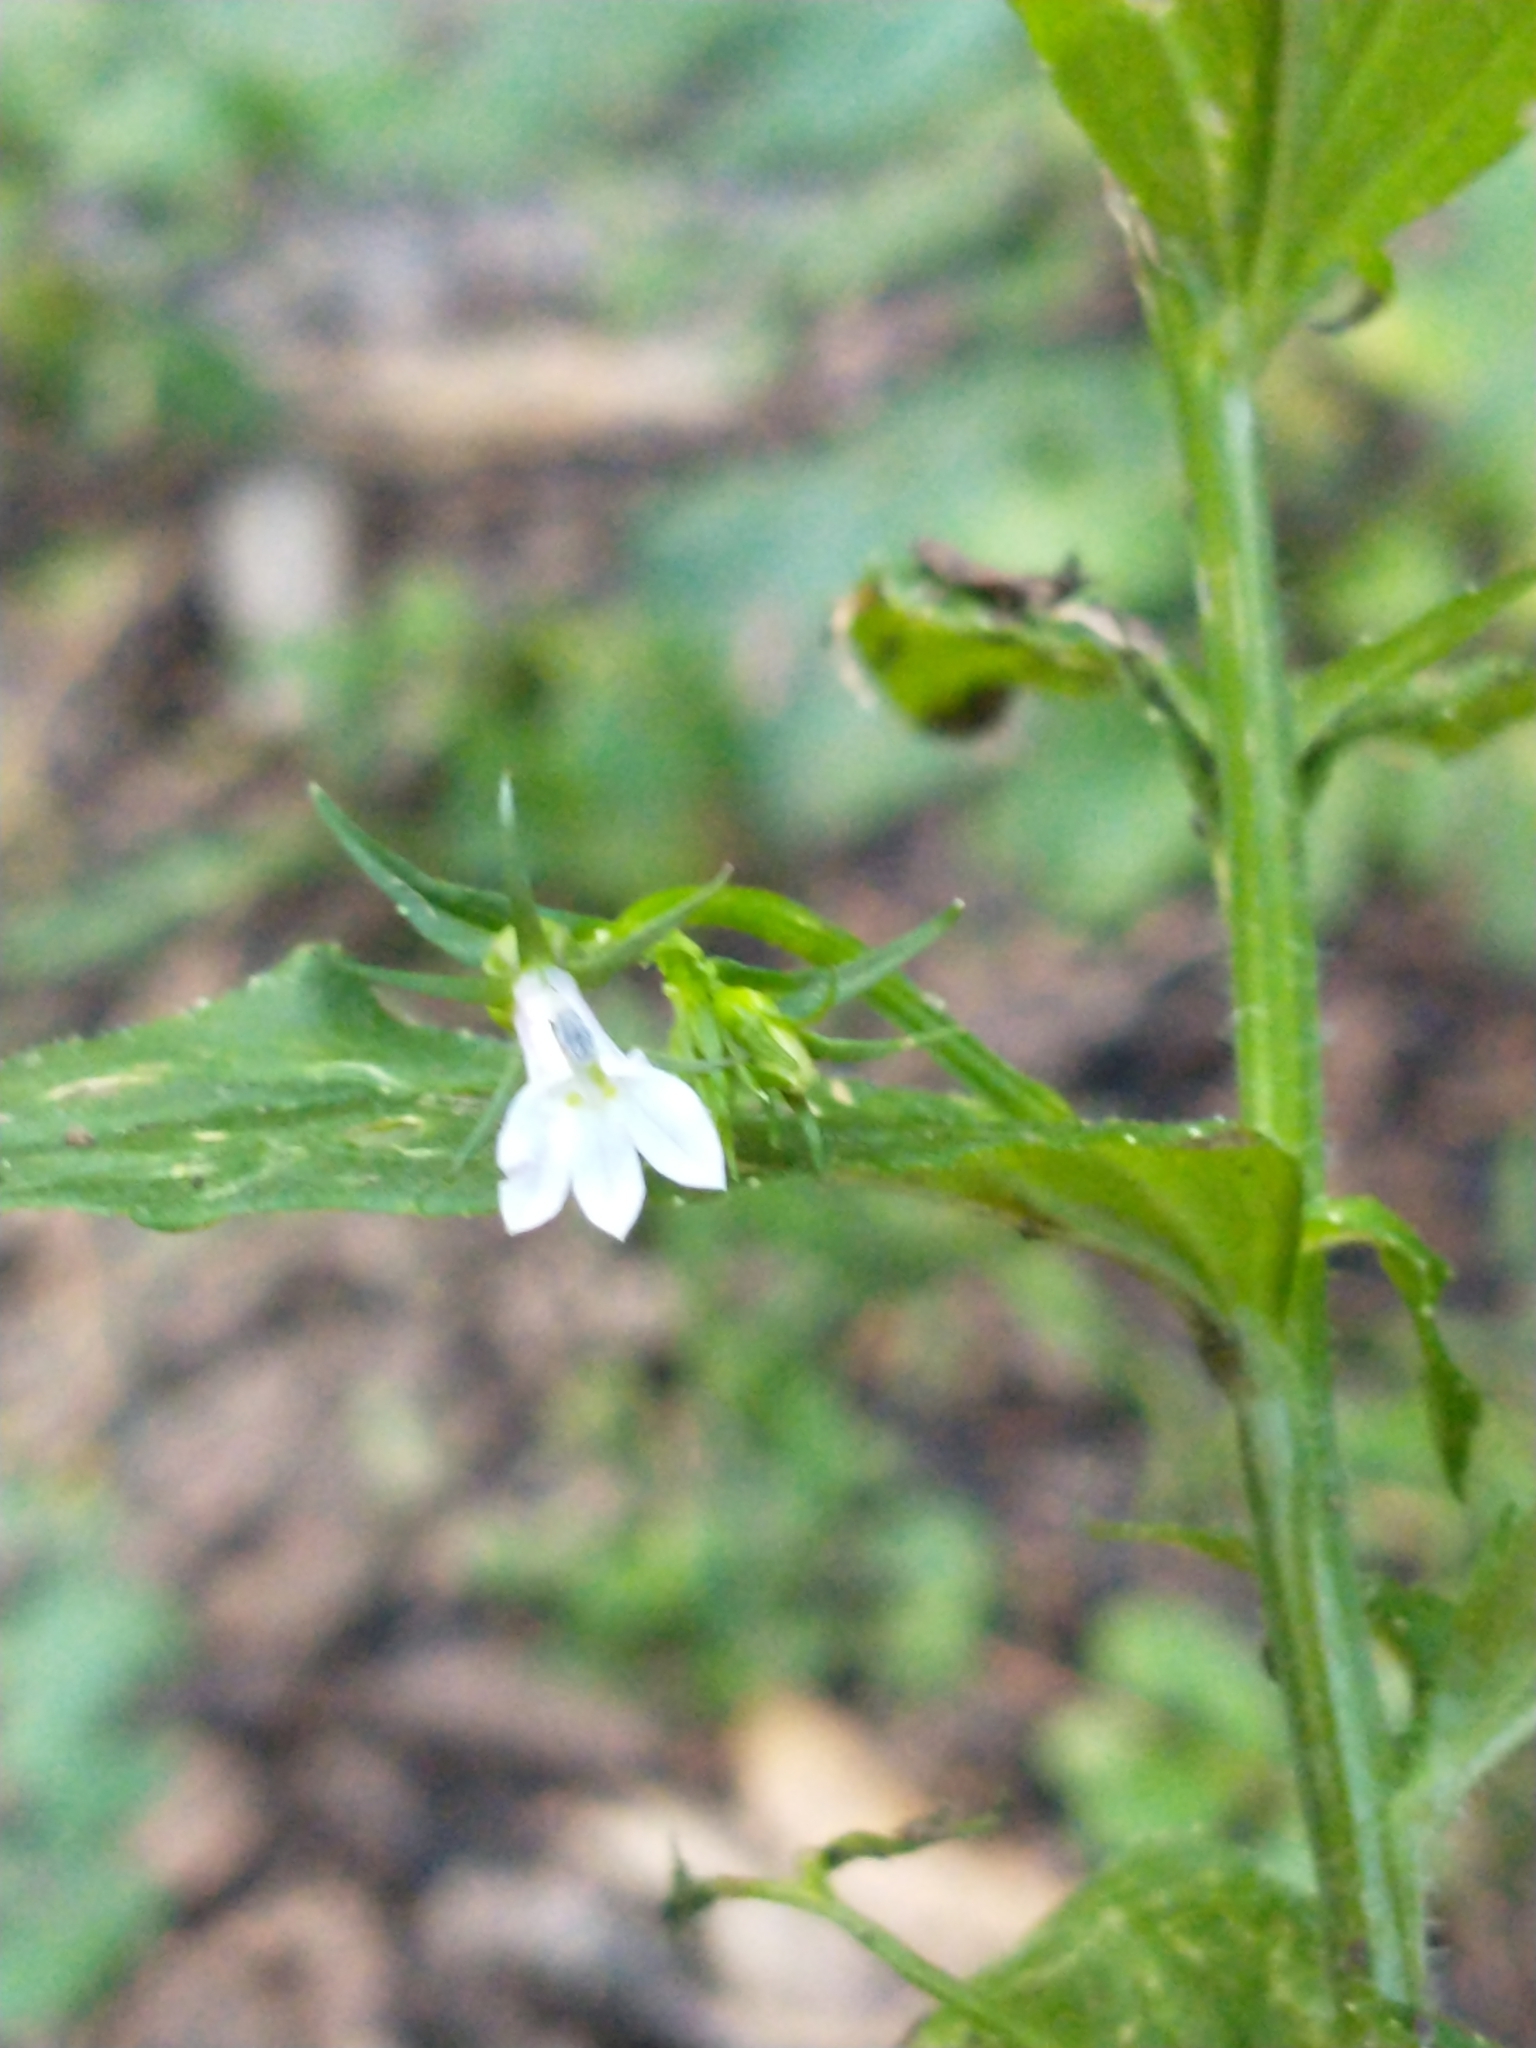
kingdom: Plantae
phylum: Tracheophyta
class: Magnoliopsida
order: Asterales
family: Campanulaceae
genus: Lobelia
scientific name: Lobelia inflata
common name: Indian tobacco
